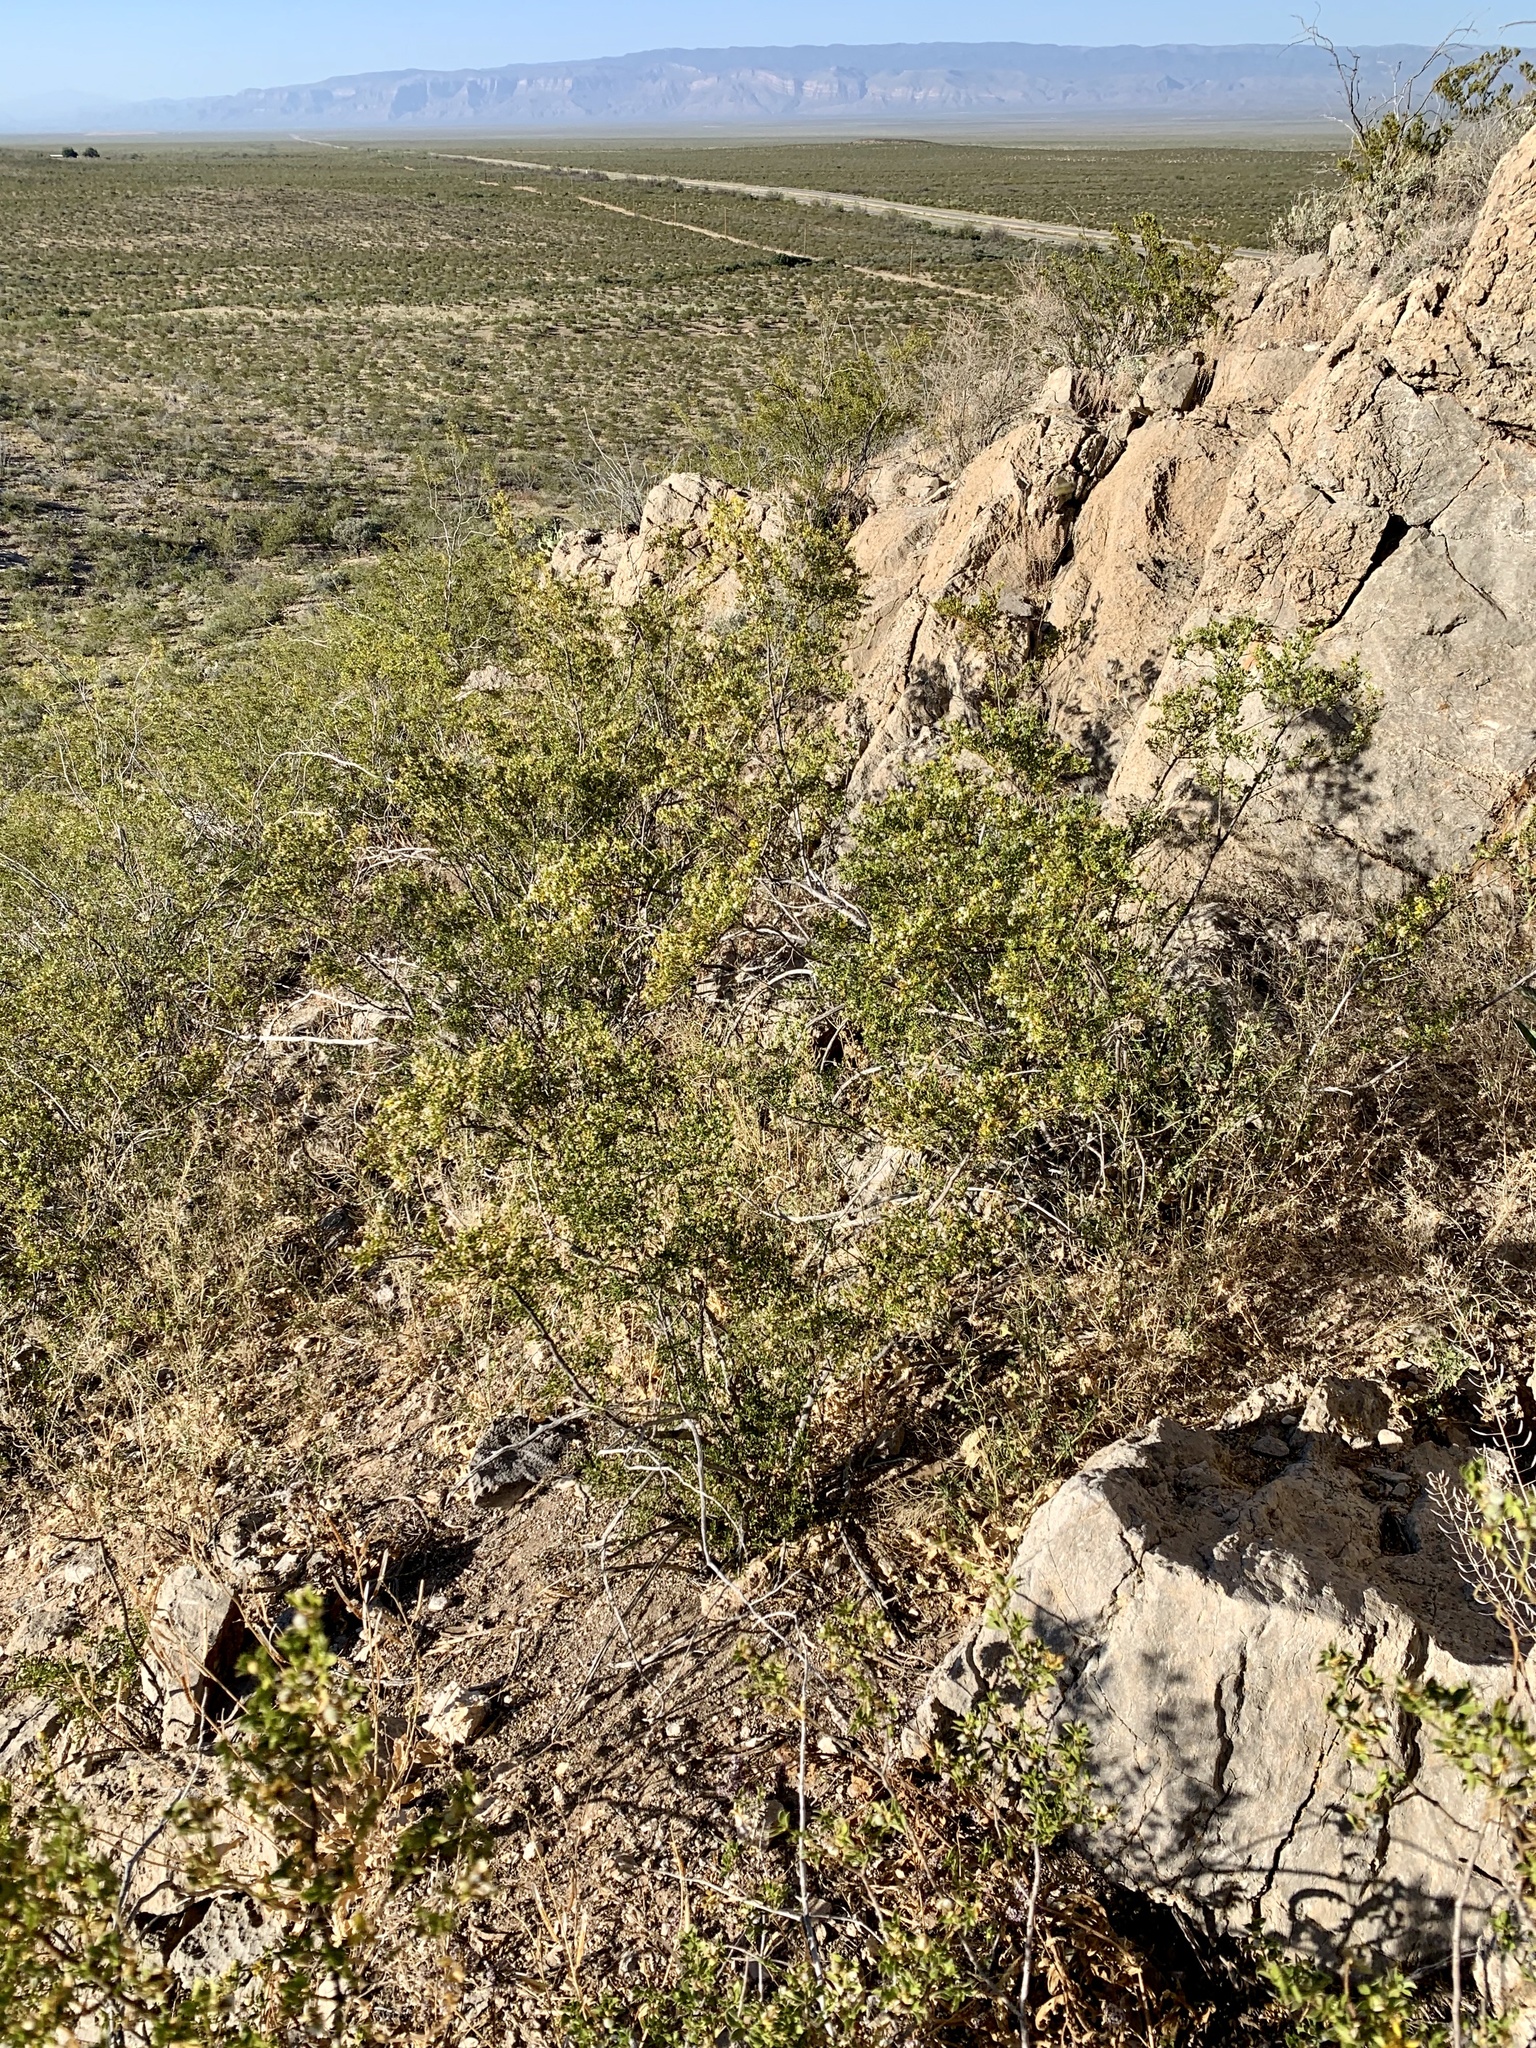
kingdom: Plantae
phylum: Tracheophyta
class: Magnoliopsida
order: Zygophyllales
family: Zygophyllaceae
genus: Larrea
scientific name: Larrea tridentata
